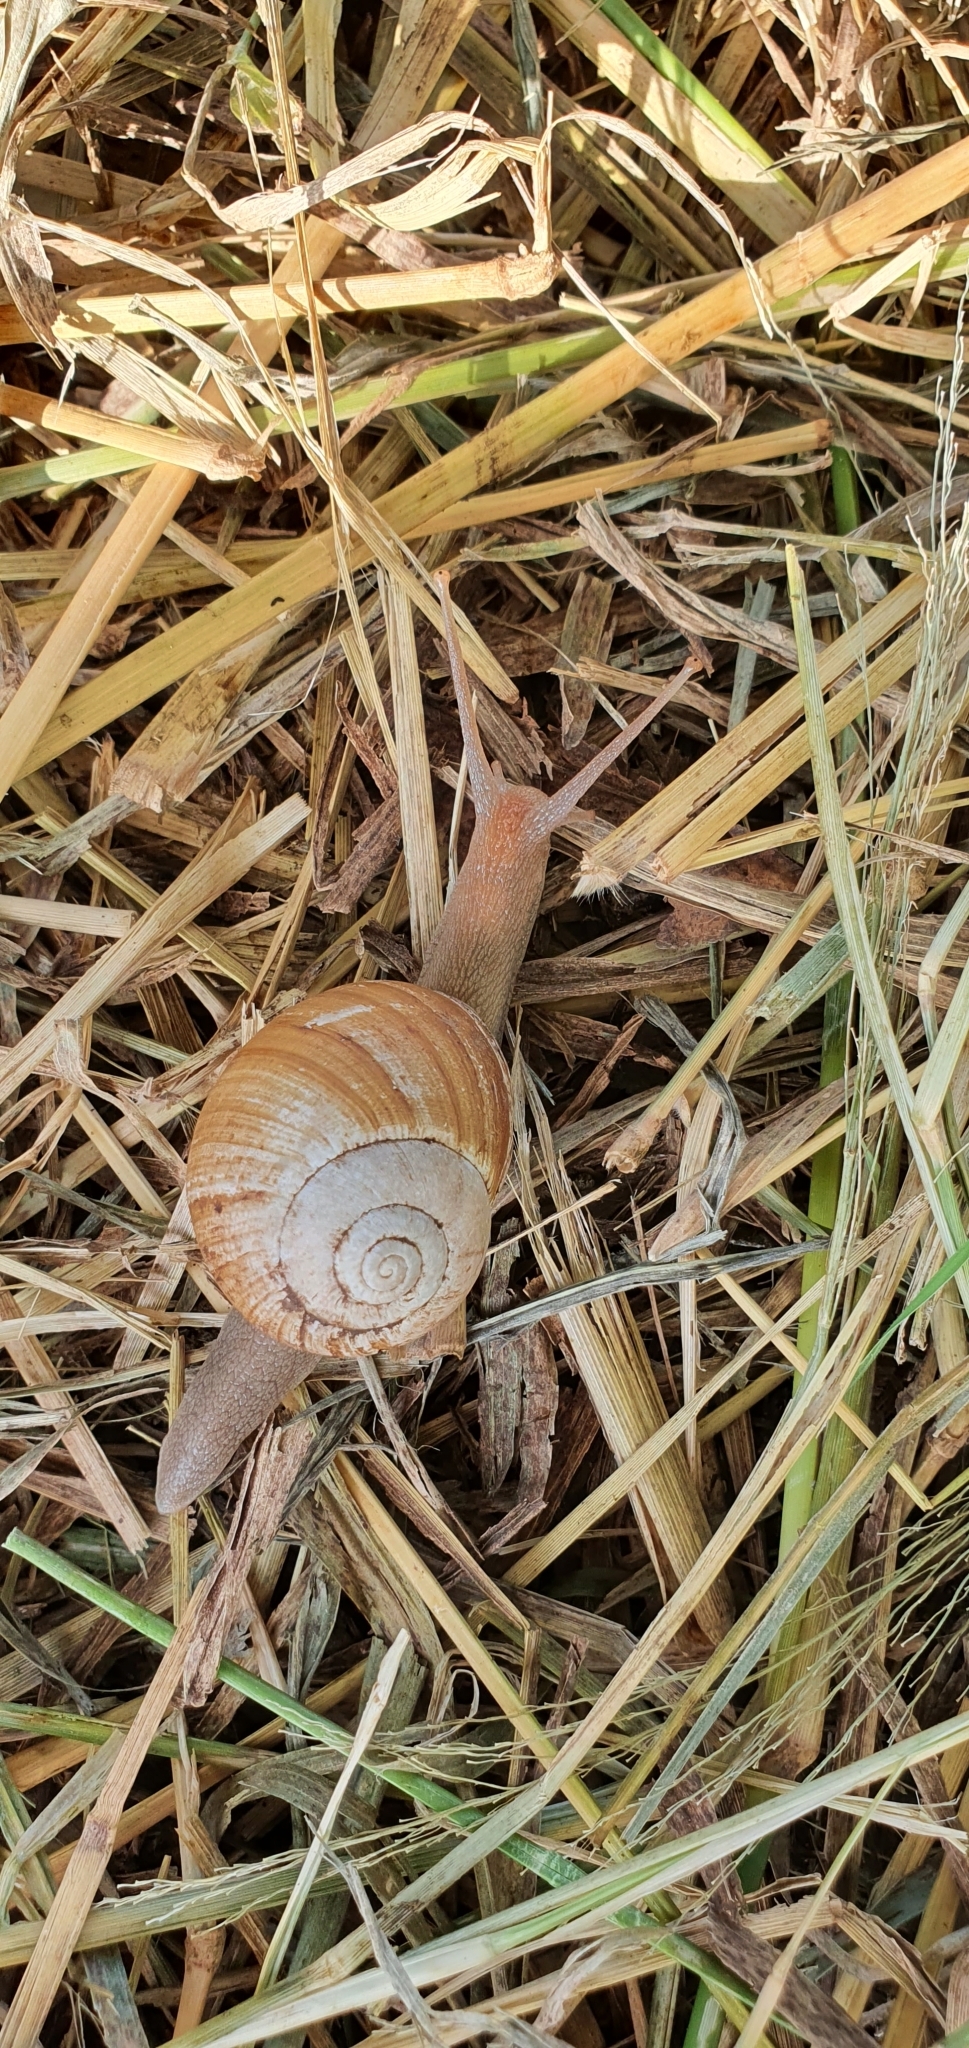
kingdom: Animalia
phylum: Mollusca
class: Gastropoda
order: Stylommatophora
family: Camaenidae
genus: Xanthomelon
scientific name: Xanthomelon pachystylum
